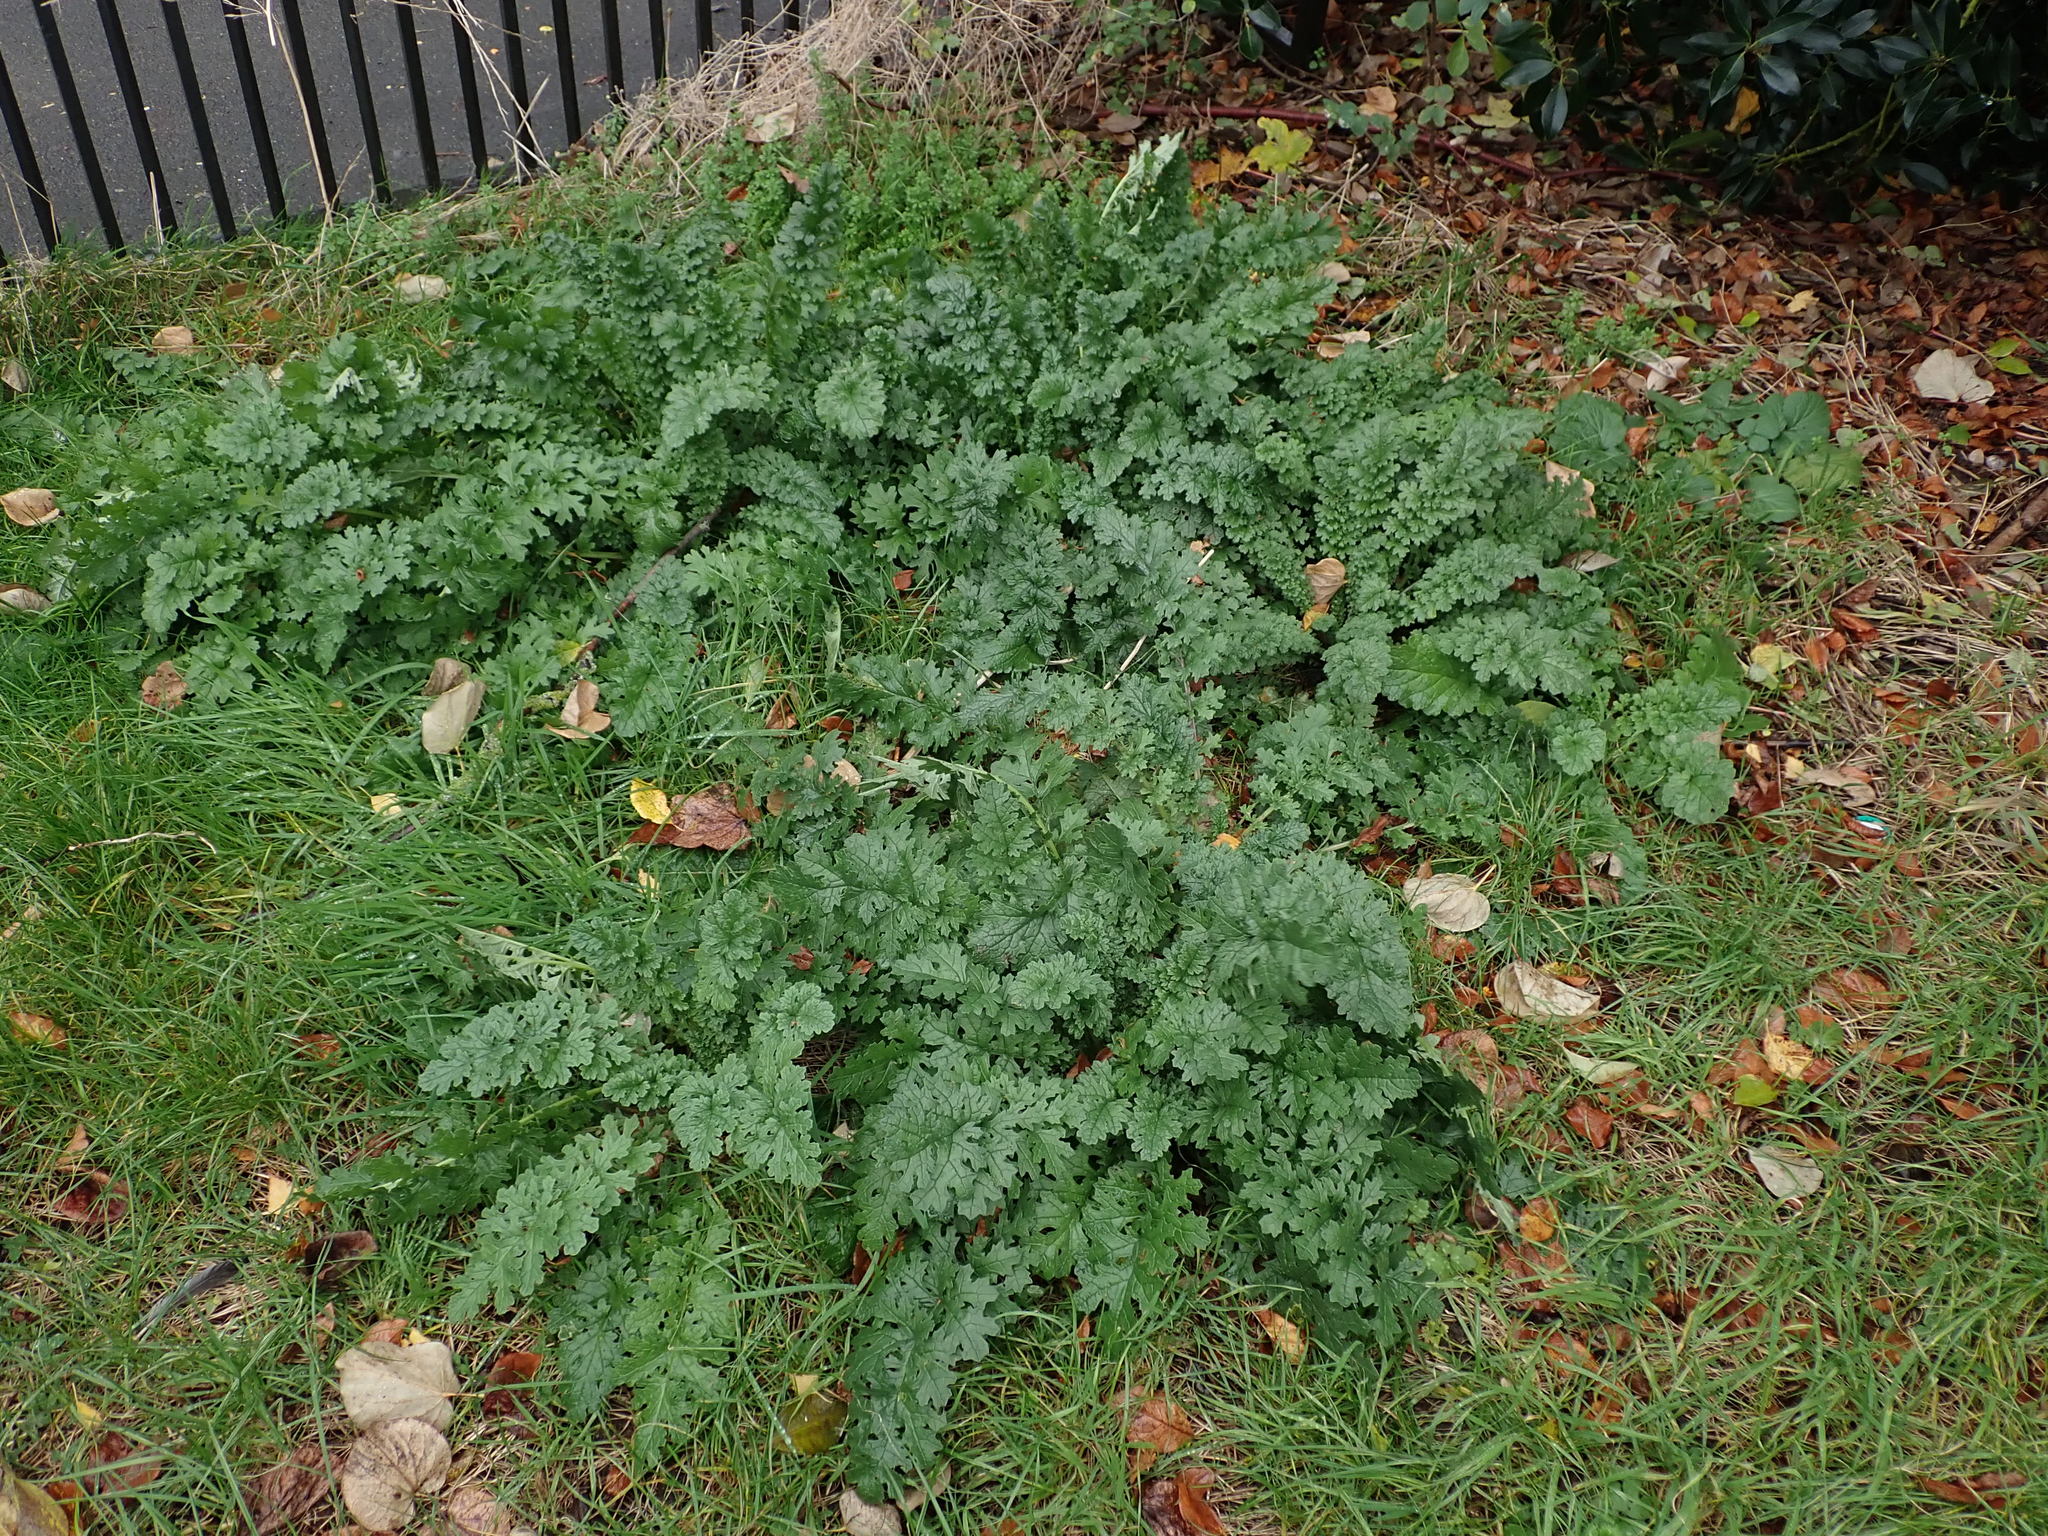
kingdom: Plantae
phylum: Tracheophyta
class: Magnoliopsida
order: Asterales
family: Asteraceae
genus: Jacobaea
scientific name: Jacobaea vulgaris
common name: Stinking willie
